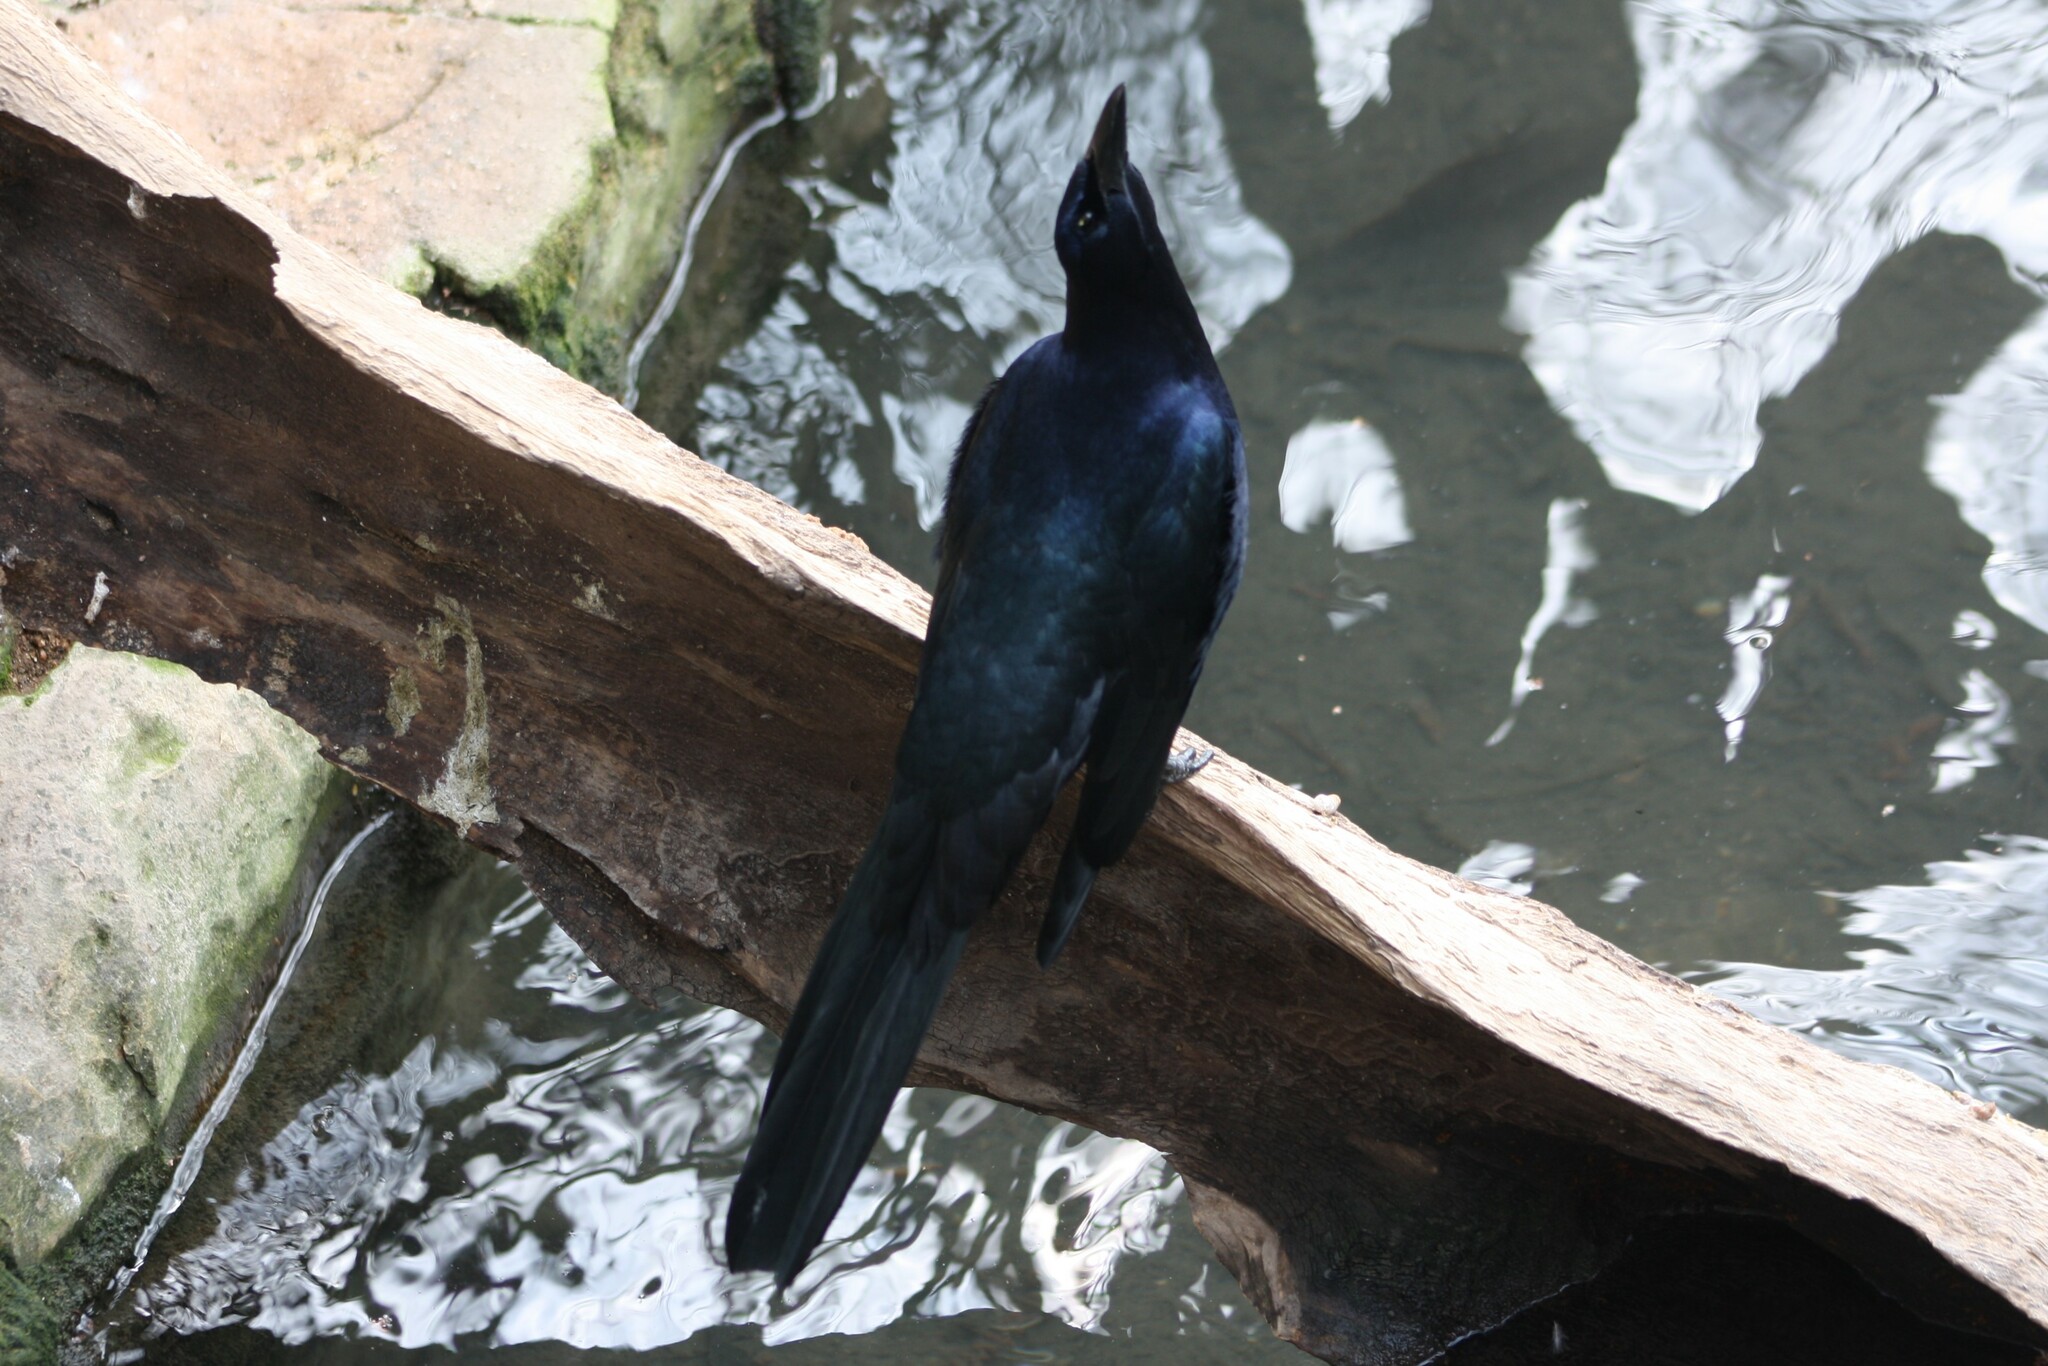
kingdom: Animalia
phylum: Chordata
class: Aves
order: Passeriformes
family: Icteridae
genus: Quiscalus
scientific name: Quiscalus mexicanus
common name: Great-tailed grackle
